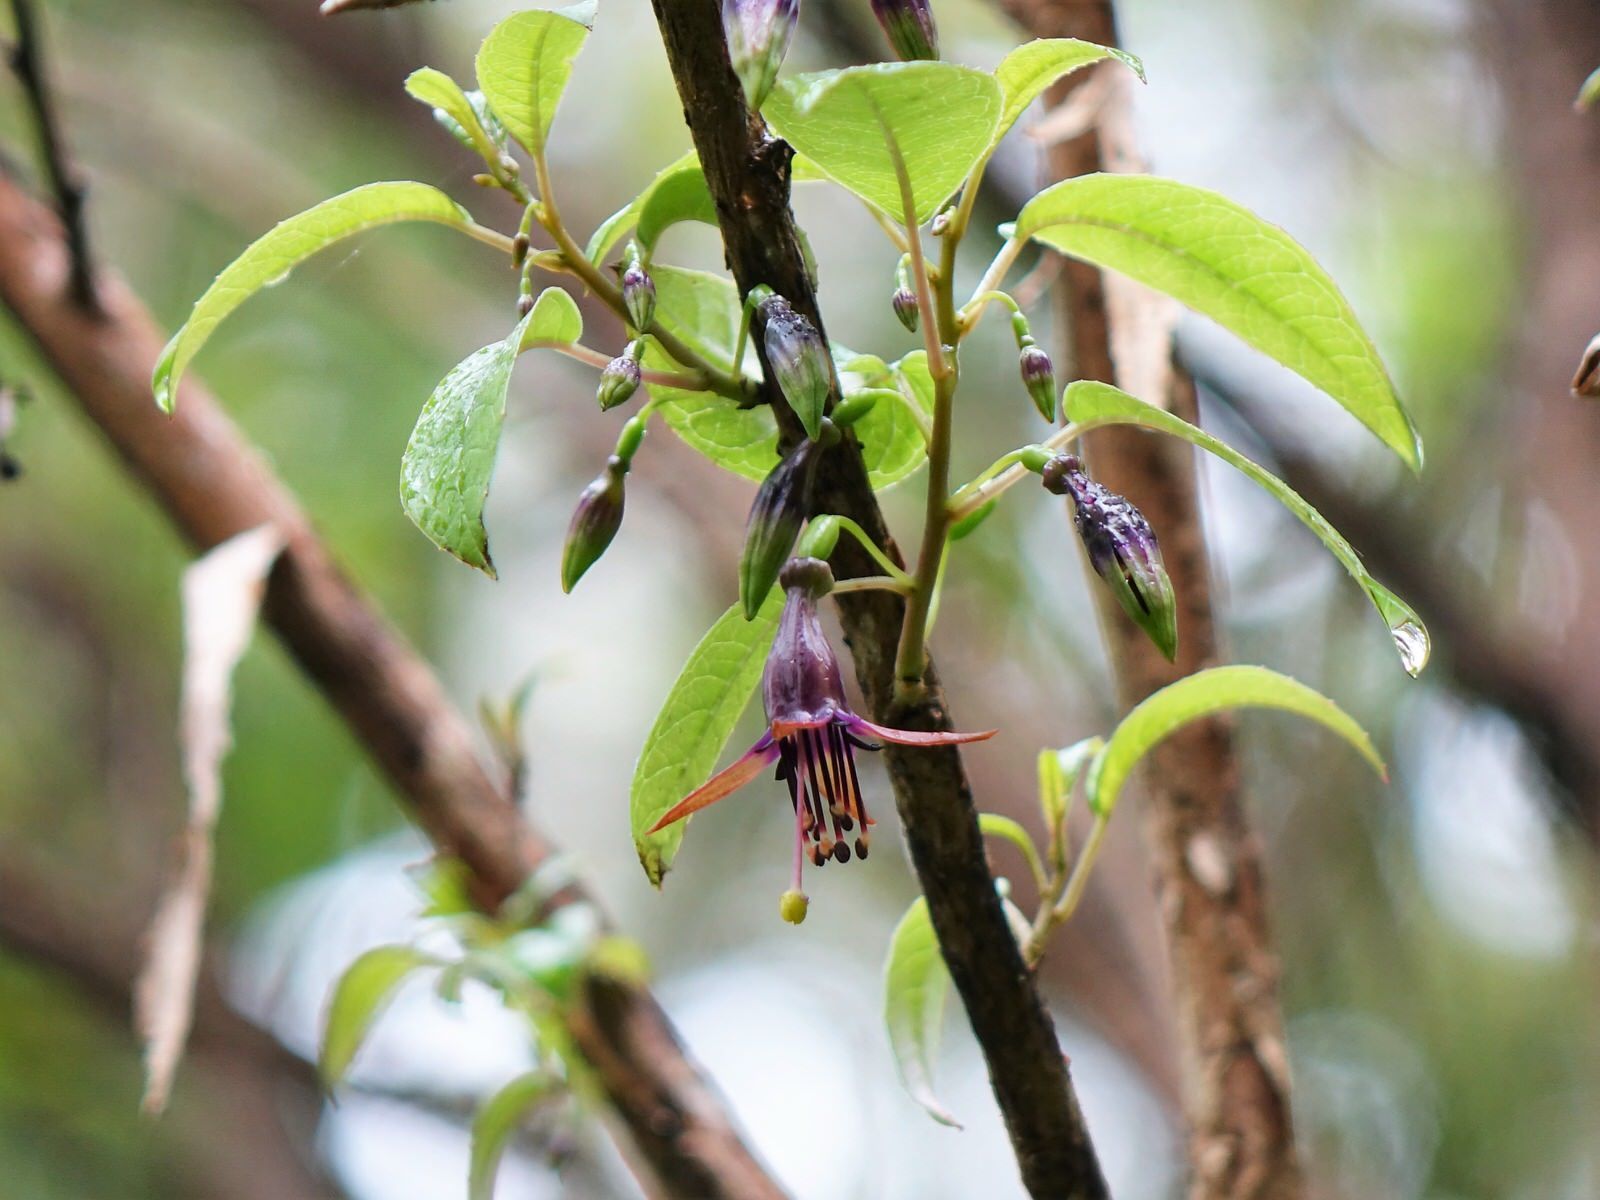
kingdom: Plantae
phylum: Tracheophyta
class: Magnoliopsida
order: Myrtales
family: Onagraceae
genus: Fuchsia
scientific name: Fuchsia excorticata
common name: Tree fuchsia
